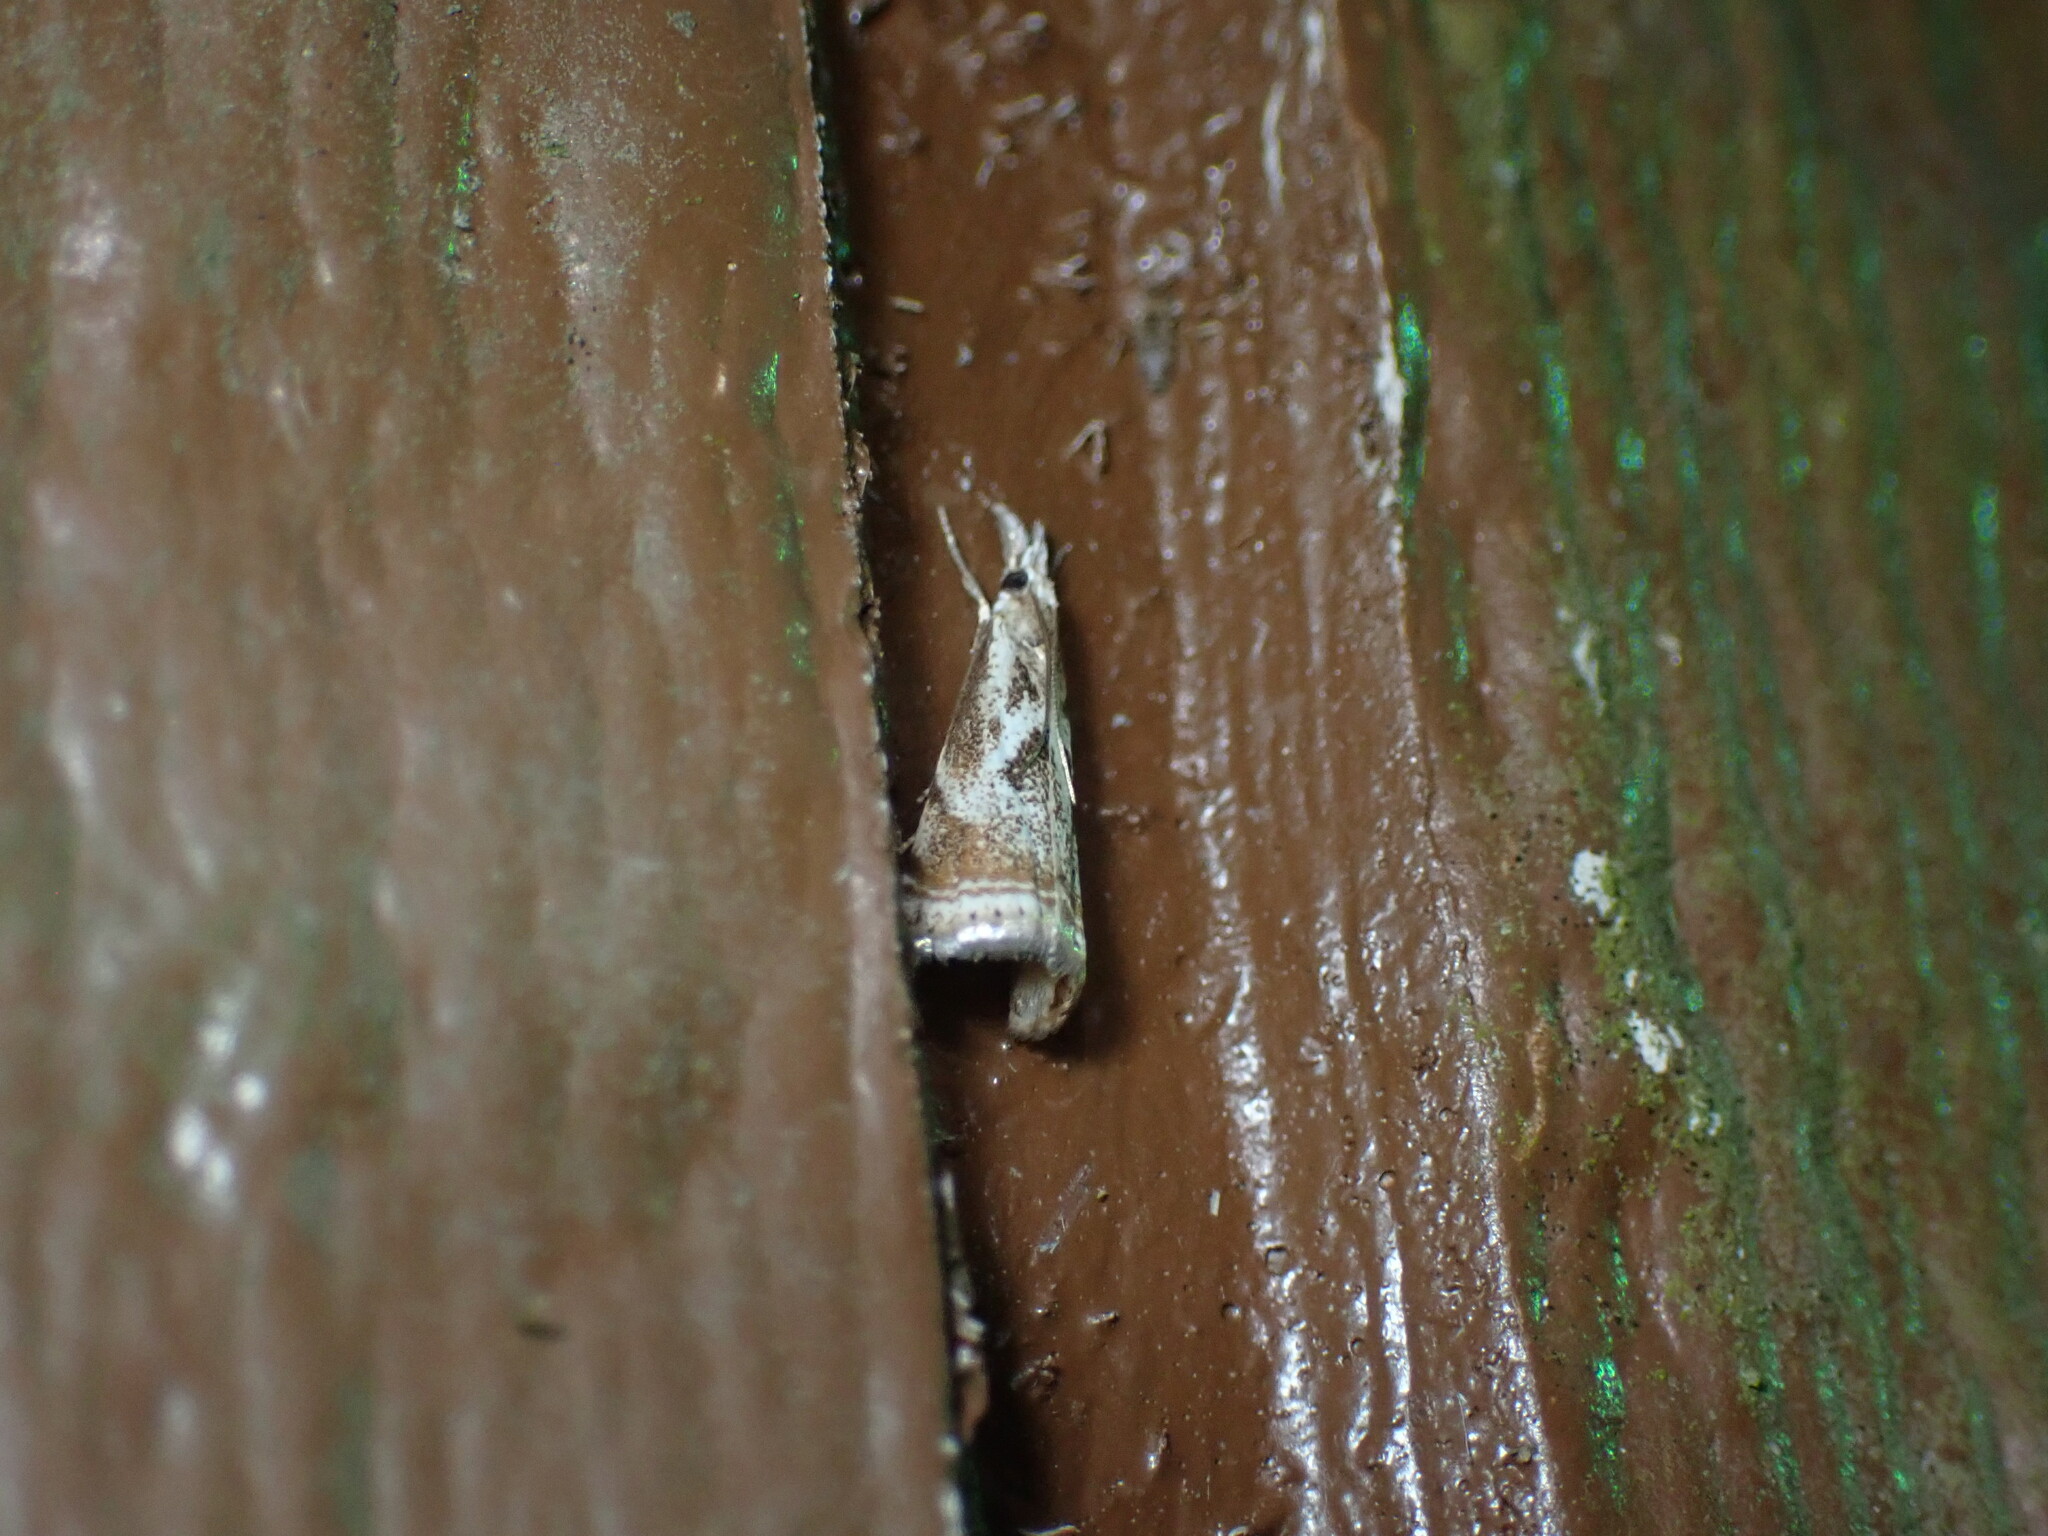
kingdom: Animalia
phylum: Arthropoda
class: Insecta
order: Lepidoptera
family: Crambidae
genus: Microcrambus
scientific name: Microcrambus elegans
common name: Elegant grass-veneer
